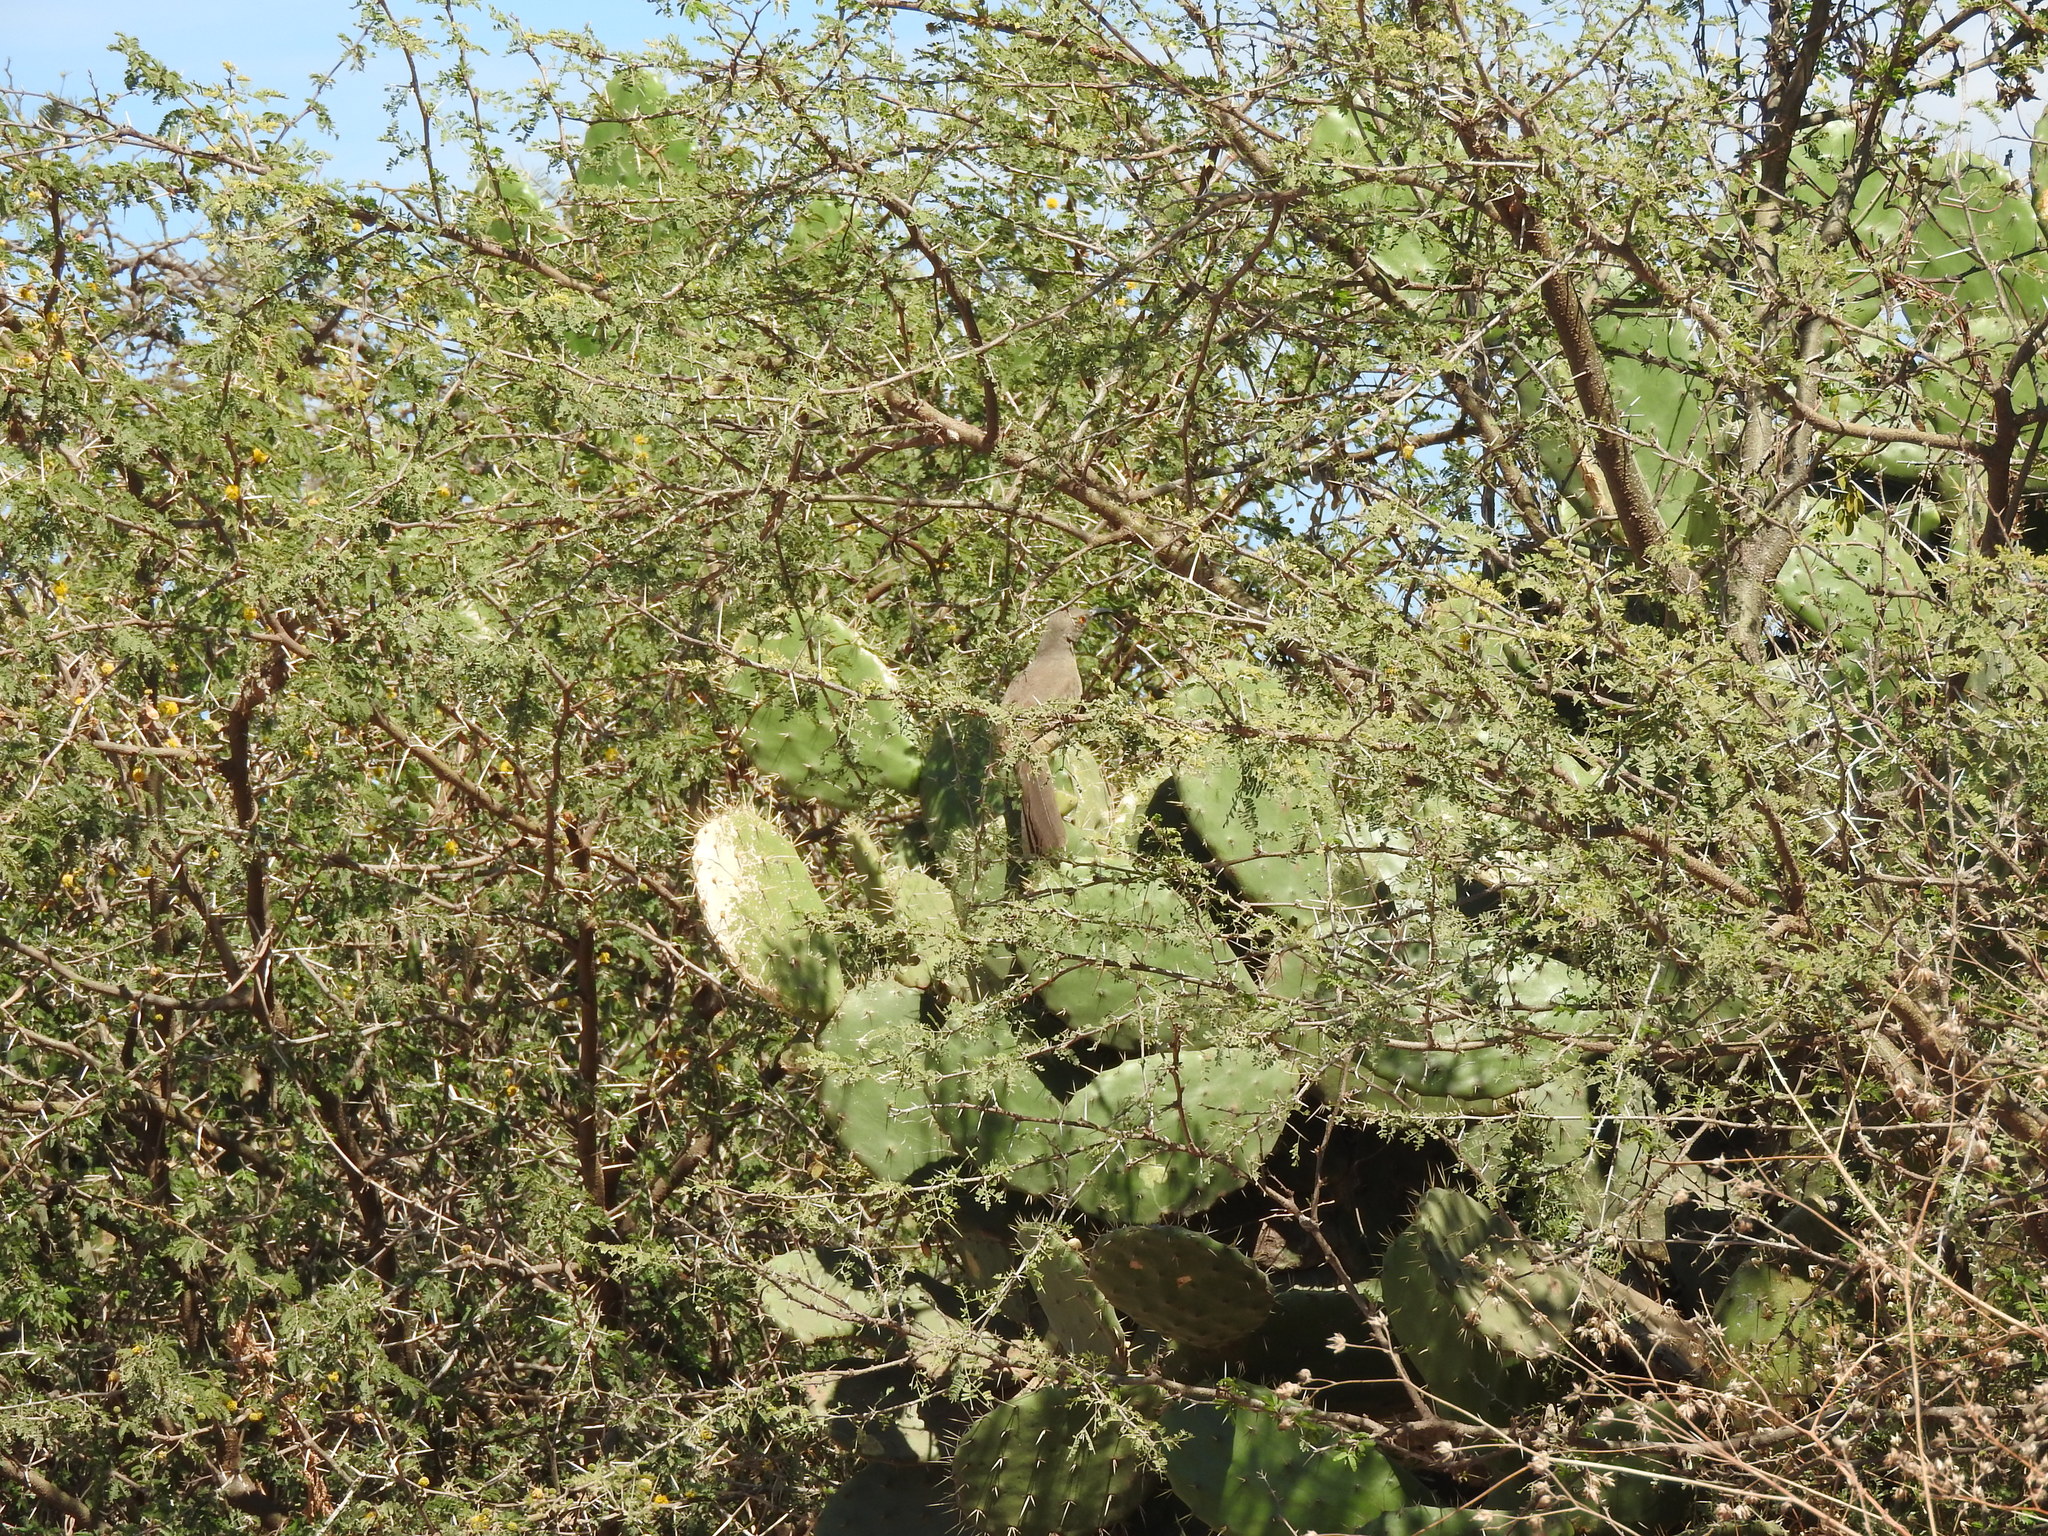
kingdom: Plantae
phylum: Tracheophyta
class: Magnoliopsida
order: Caryophyllales
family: Cactaceae
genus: Opuntia
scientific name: Opuntia hyptiacantha
